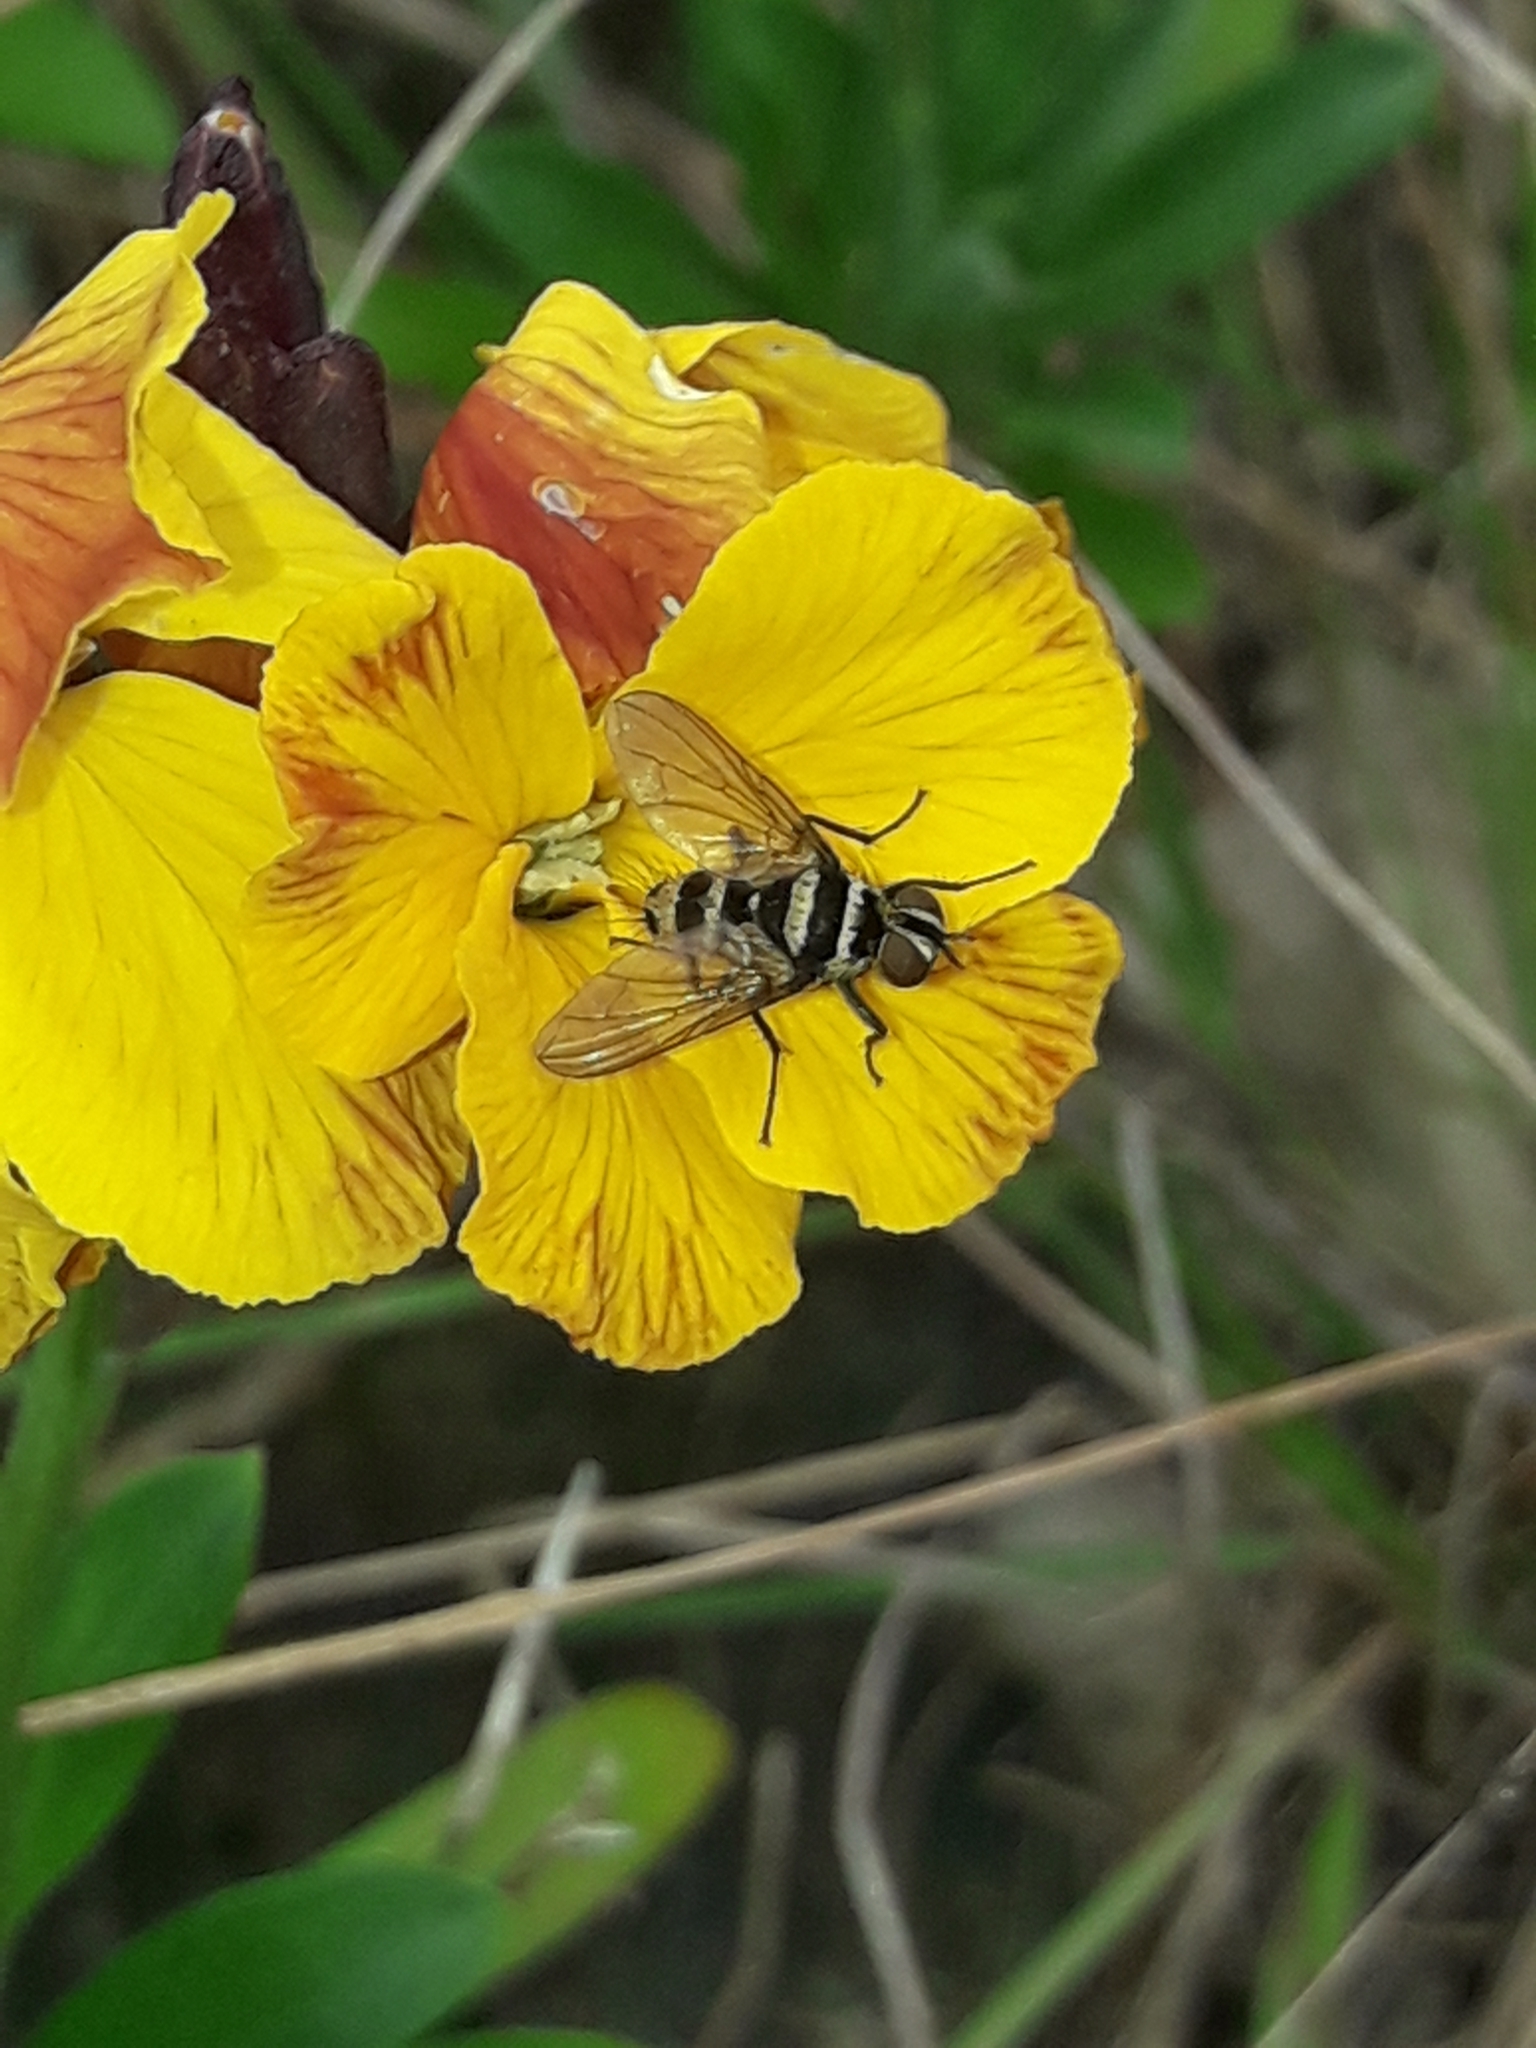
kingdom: Animalia
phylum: Arthropoda
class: Insecta
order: Diptera
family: Tachinidae
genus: Trigonospila
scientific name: Trigonospila brevifacies
